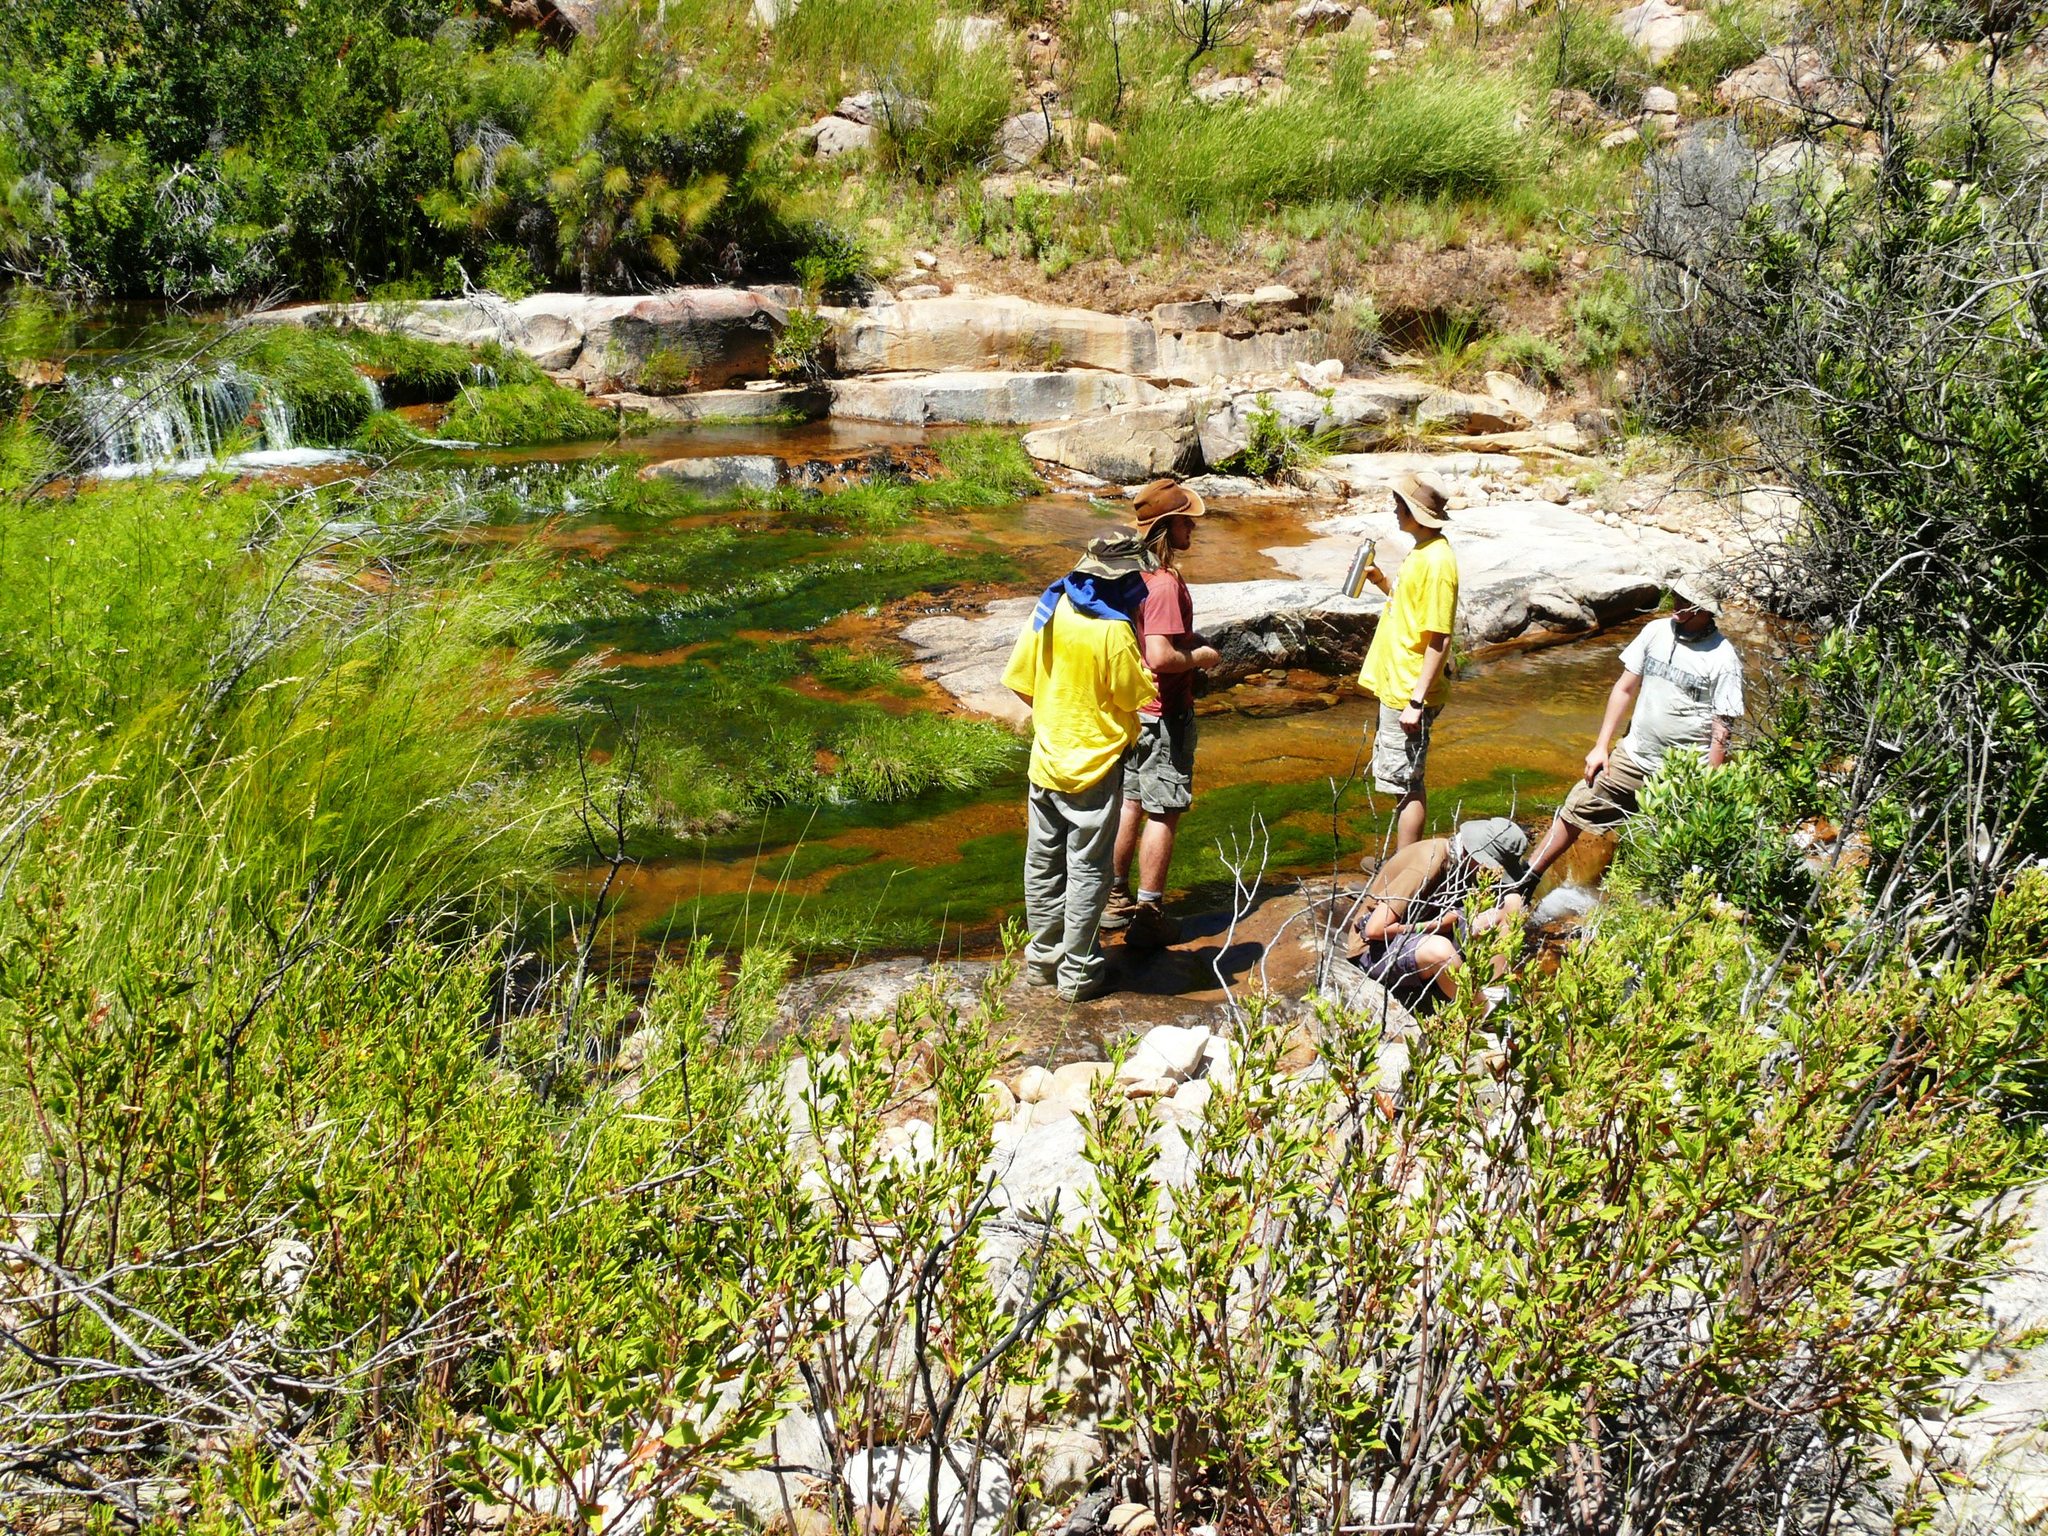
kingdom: Plantae
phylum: Tracheophyta
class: Liliopsida
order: Poales
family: Cyperaceae
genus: Isolepis
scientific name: Isolepis digitata
